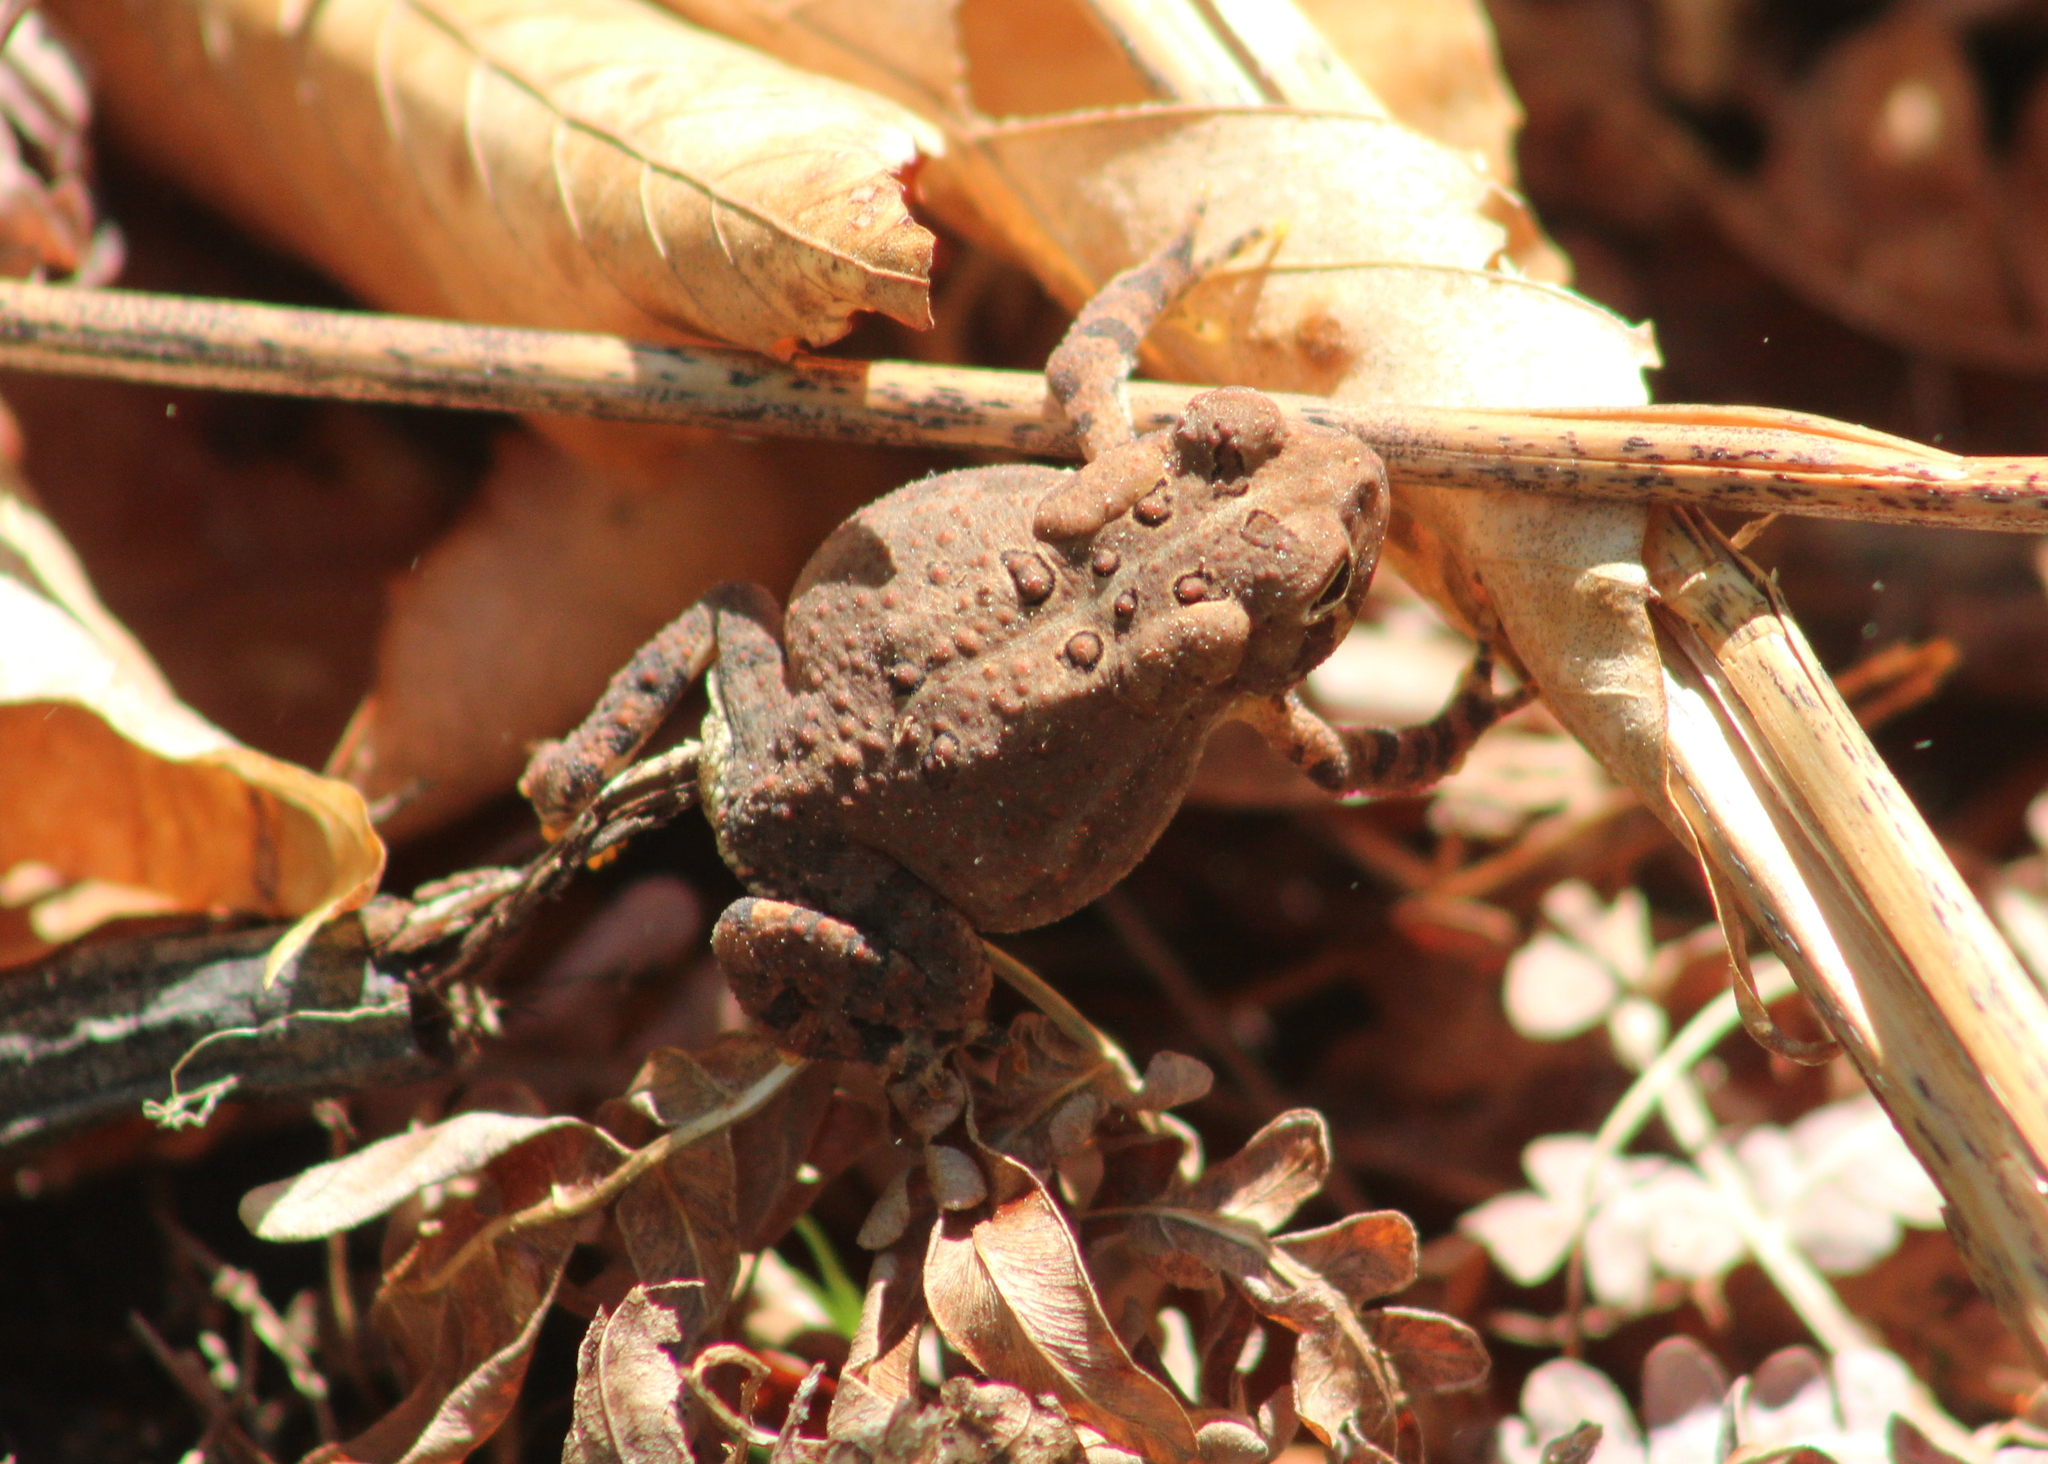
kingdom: Animalia
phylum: Chordata
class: Amphibia
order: Anura
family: Bufonidae
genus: Anaxyrus
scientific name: Anaxyrus americanus
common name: American toad
